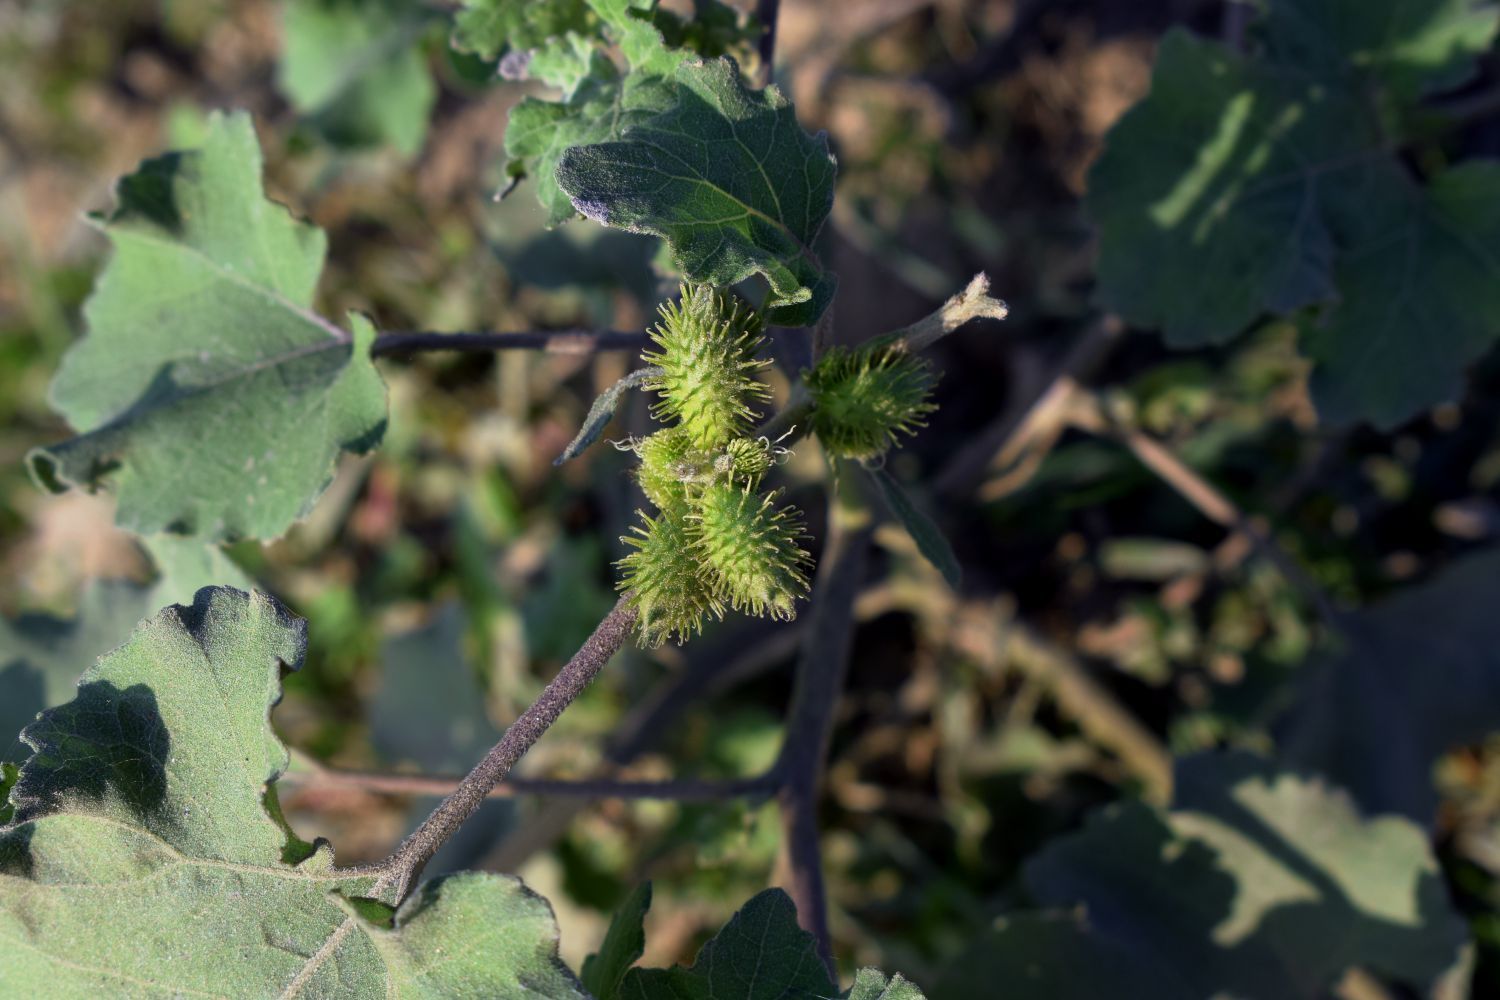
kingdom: Plantae
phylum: Tracheophyta
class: Magnoliopsida
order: Asterales
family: Asteraceae
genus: Xanthium
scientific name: Xanthium strumarium
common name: Rough cocklebur
